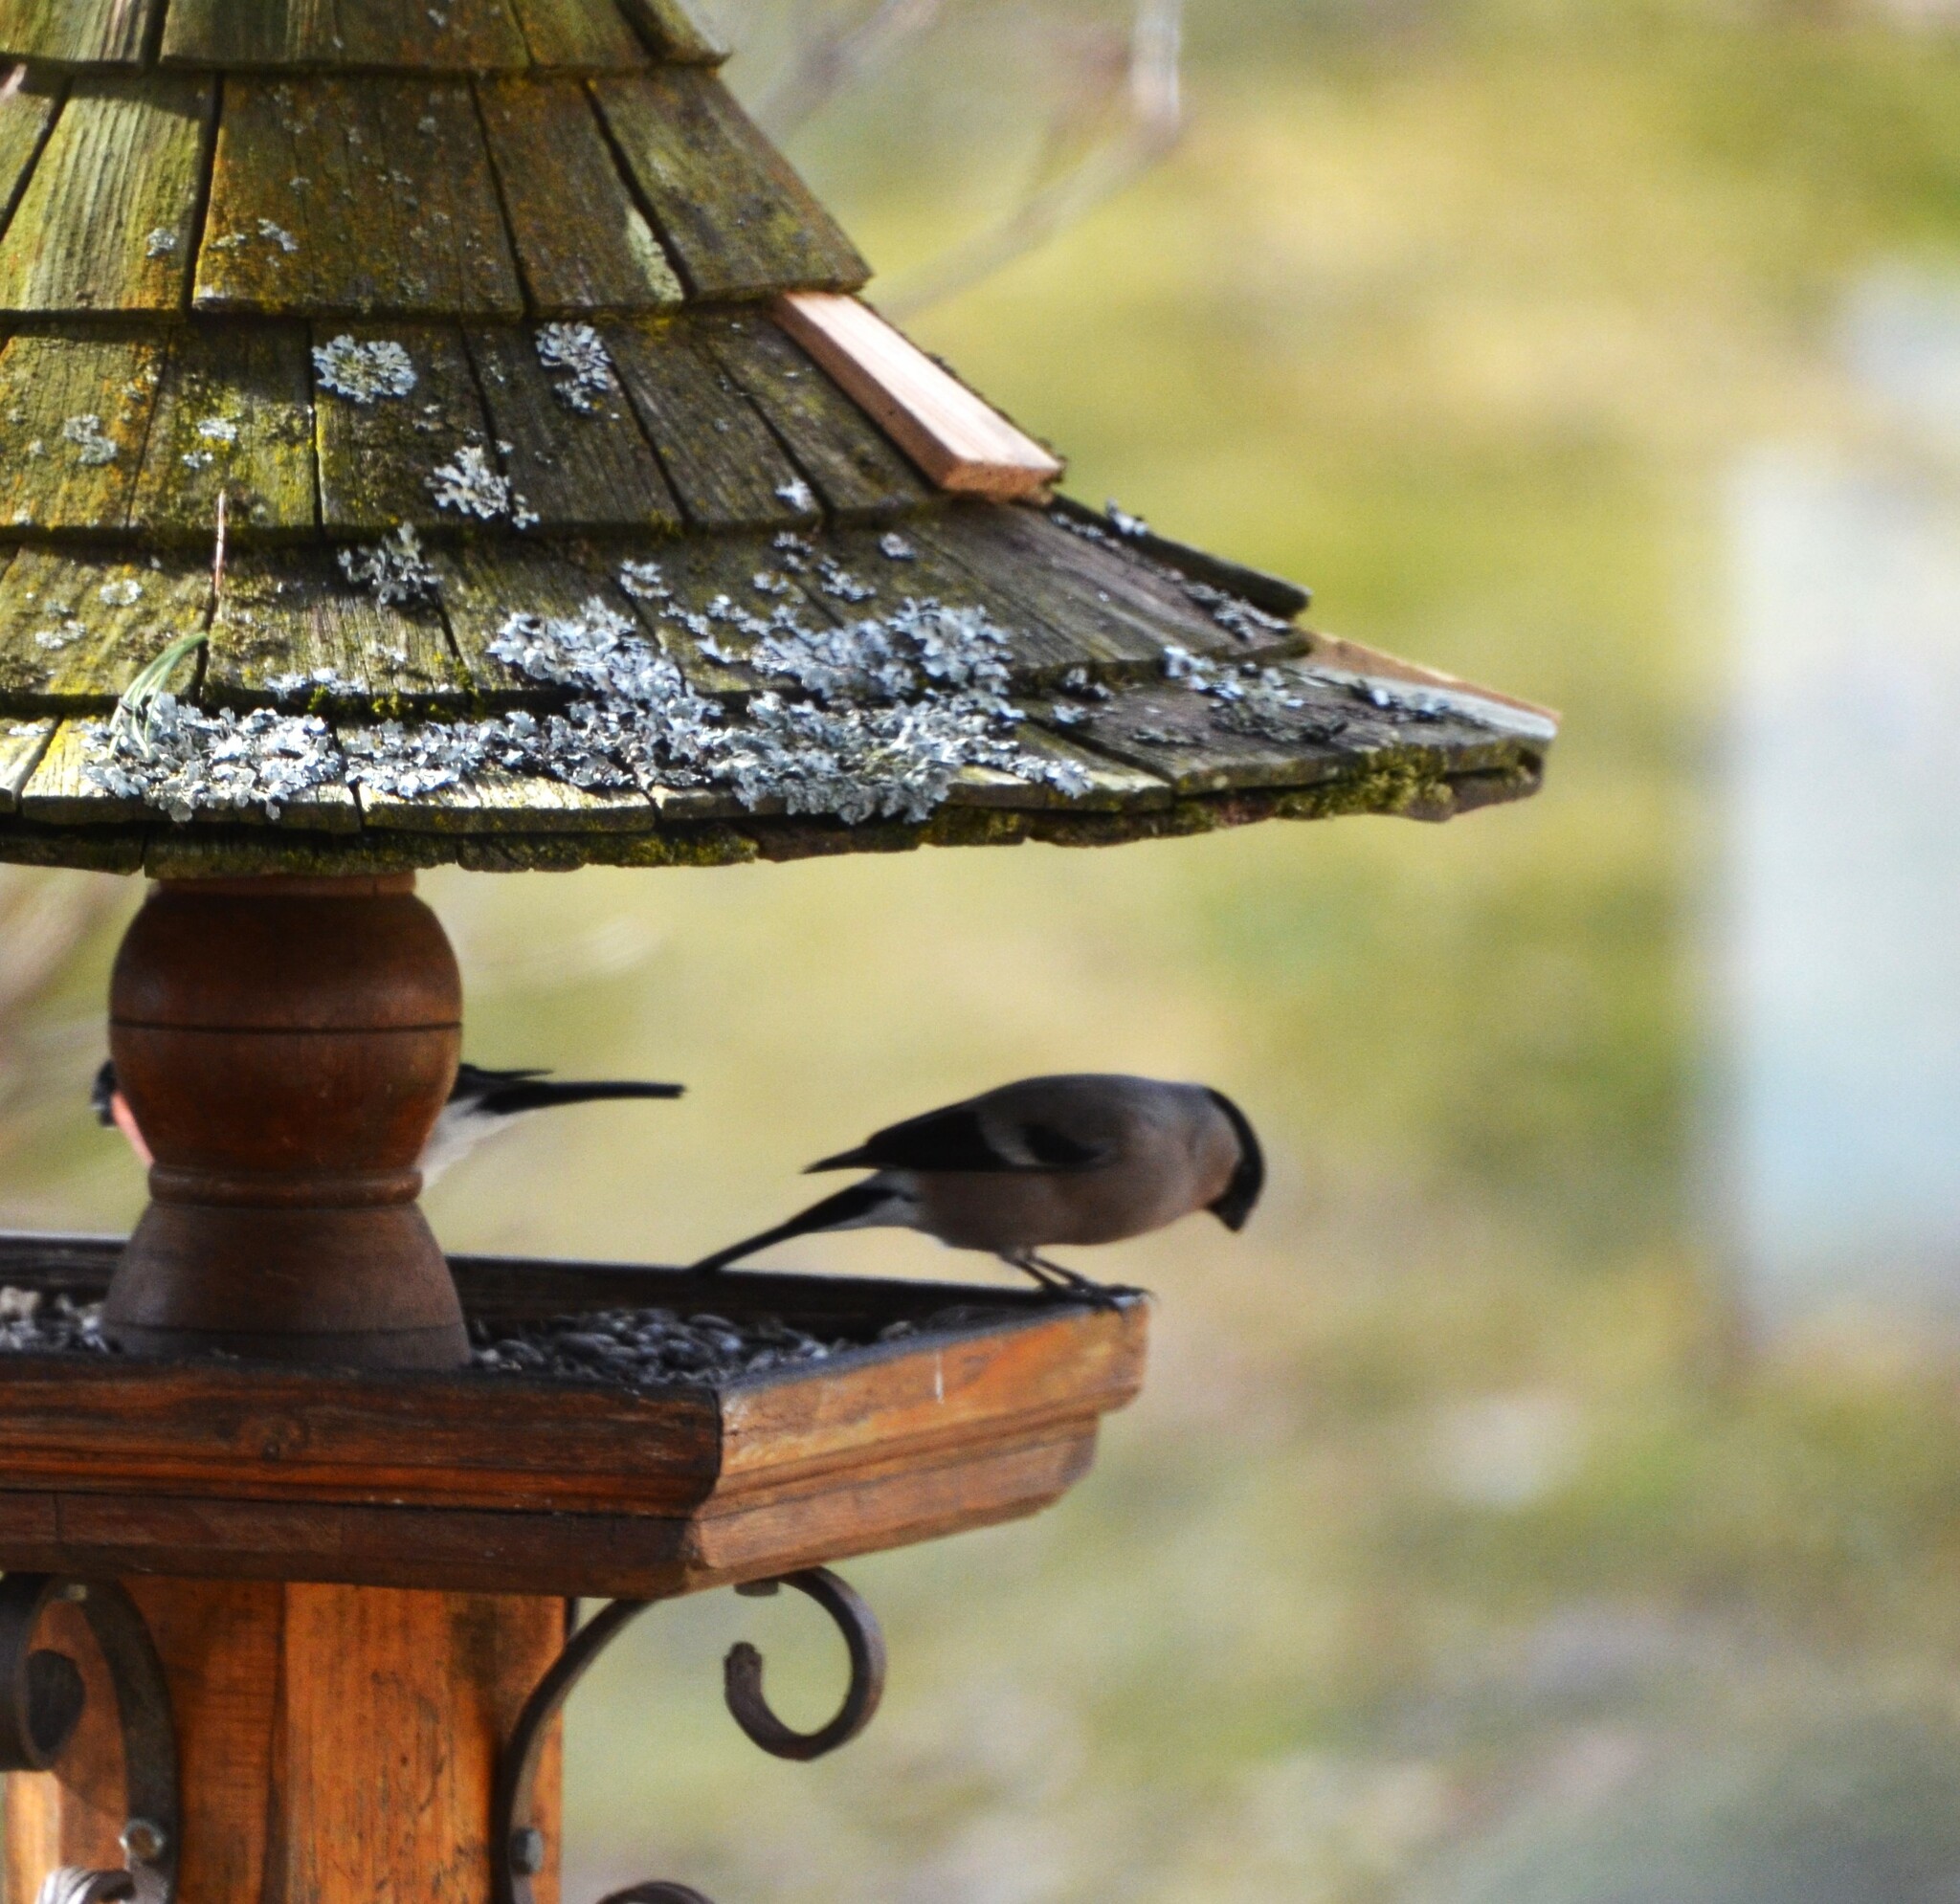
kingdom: Animalia
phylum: Chordata
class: Aves
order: Passeriformes
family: Fringillidae
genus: Pyrrhula
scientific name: Pyrrhula pyrrhula
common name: Eurasian bullfinch
